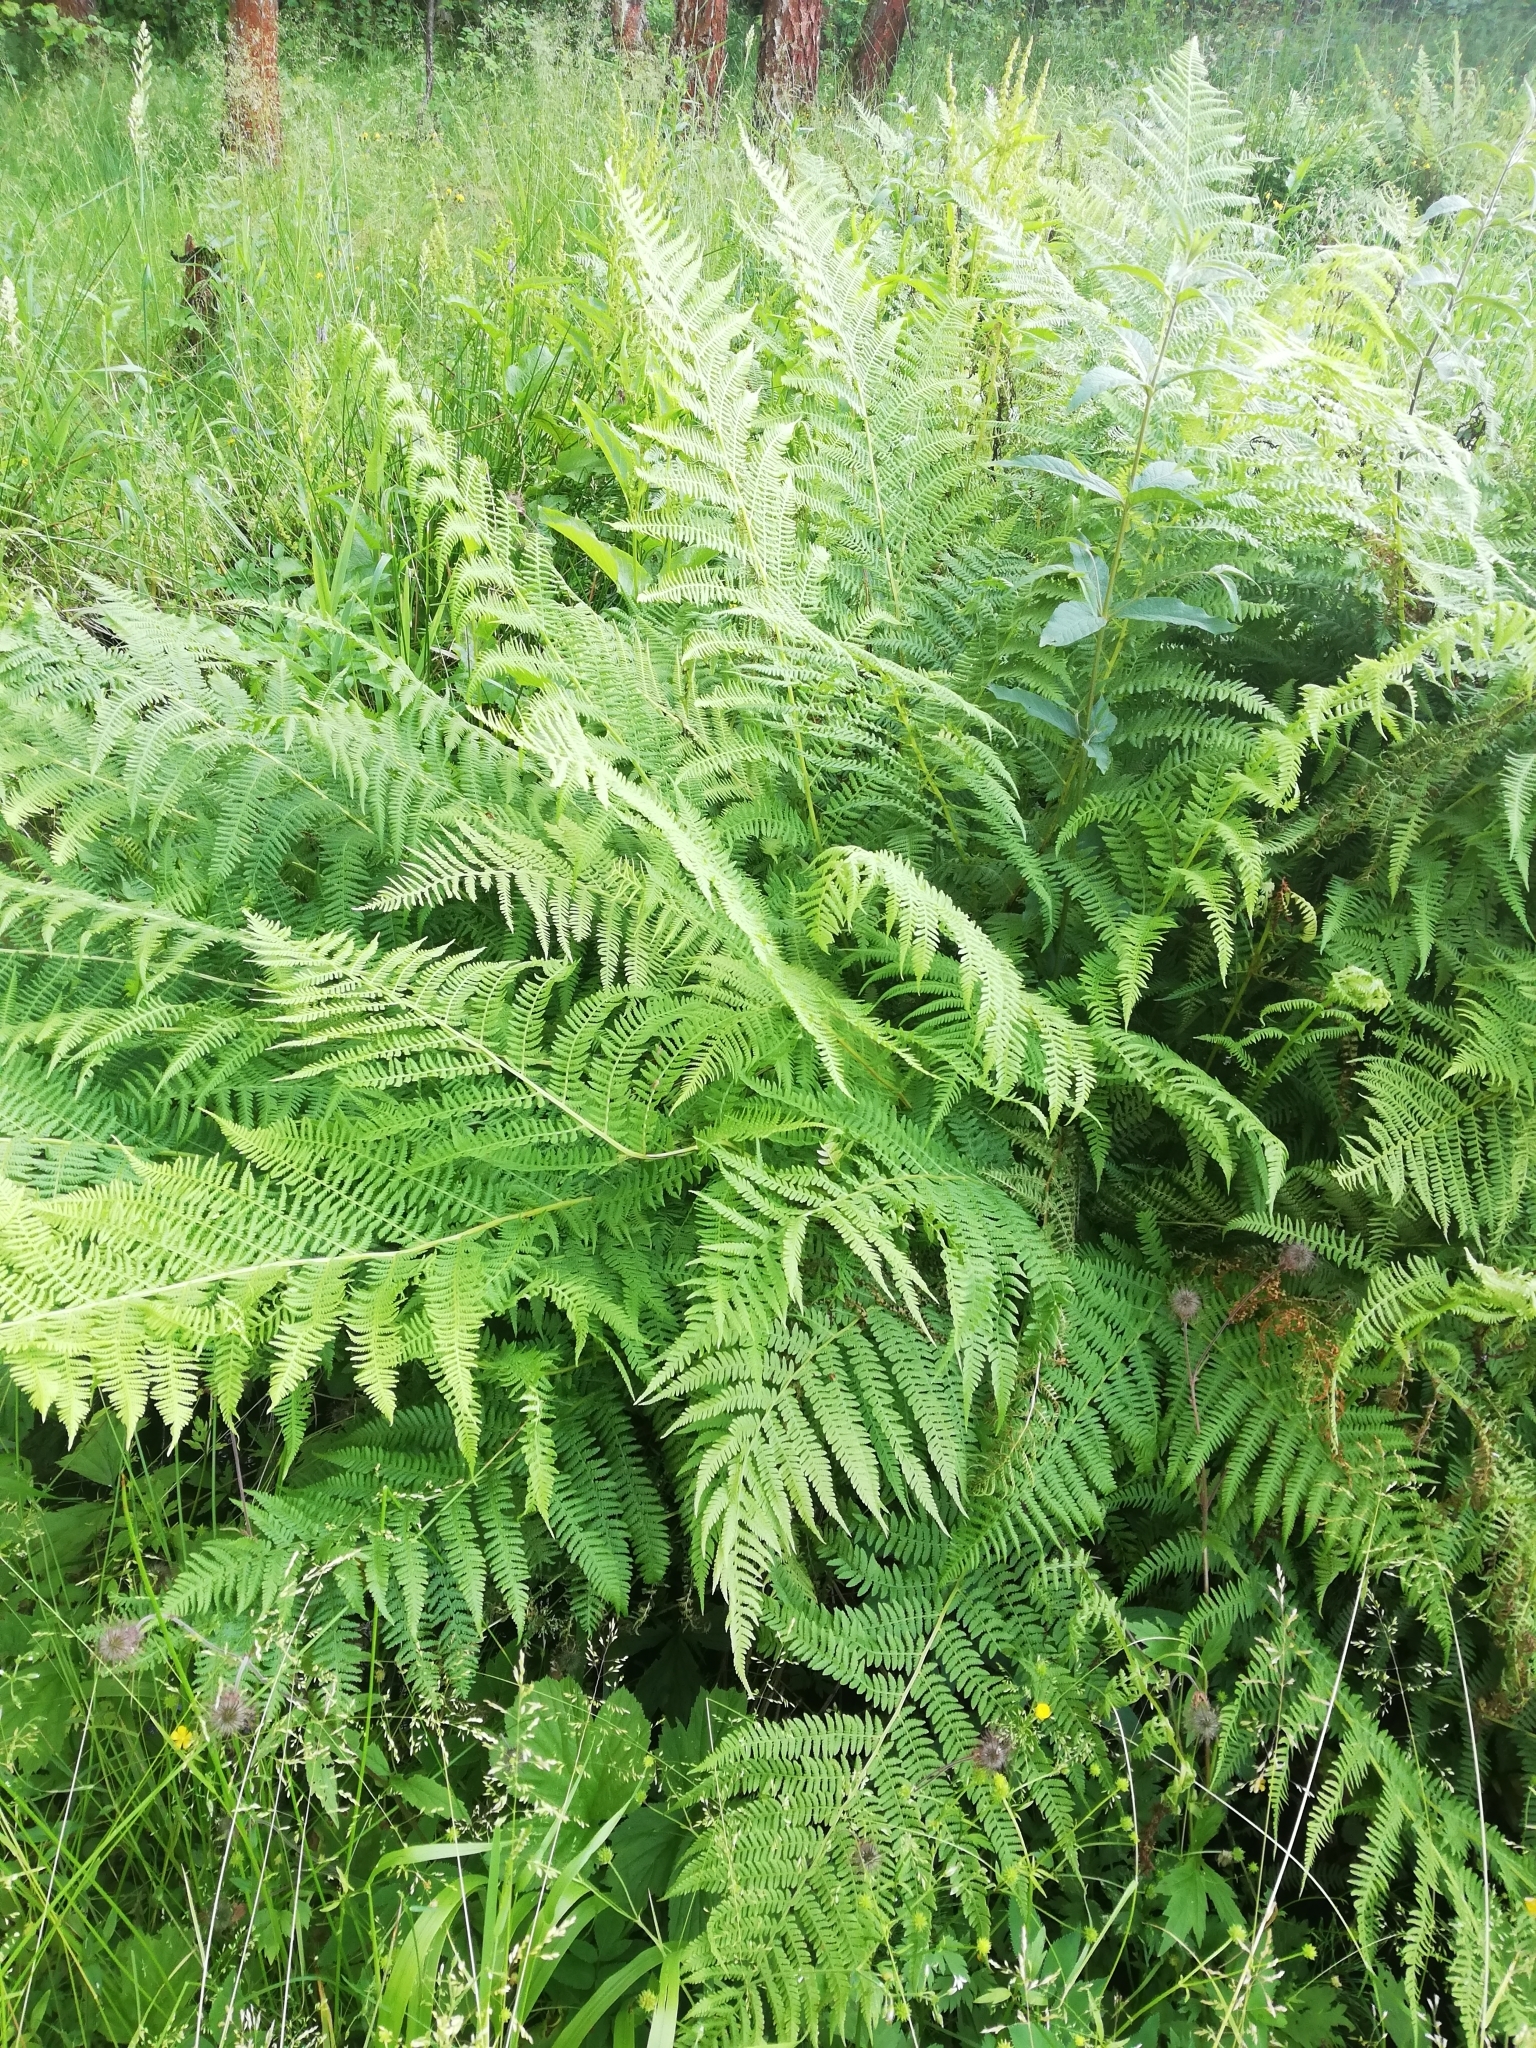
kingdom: Plantae
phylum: Tracheophyta
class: Polypodiopsida
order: Polypodiales
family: Athyriaceae
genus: Athyrium
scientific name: Athyrium filix-femina
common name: Lady fern
